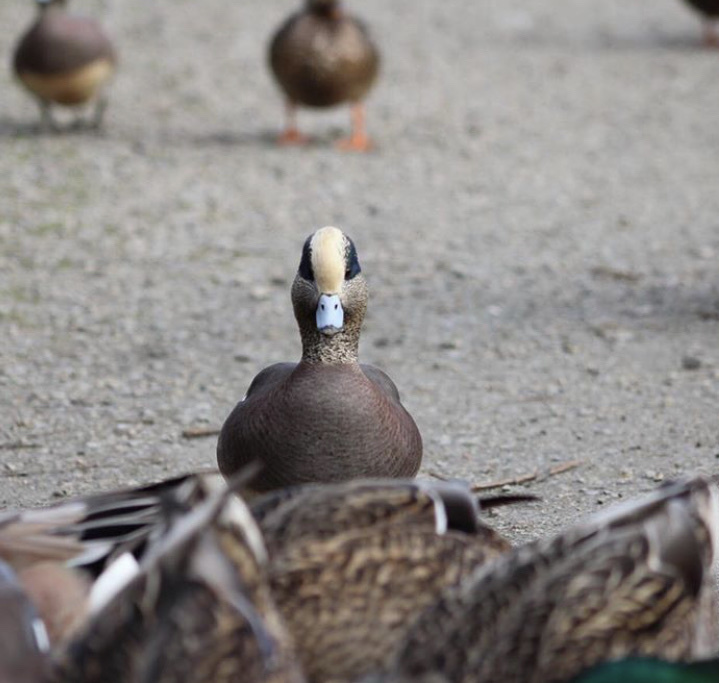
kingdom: Animalia
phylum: Chordata
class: Aves
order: Anseriformes
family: Anatidae
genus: Mareca
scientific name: Mareca americana
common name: American wigeon
